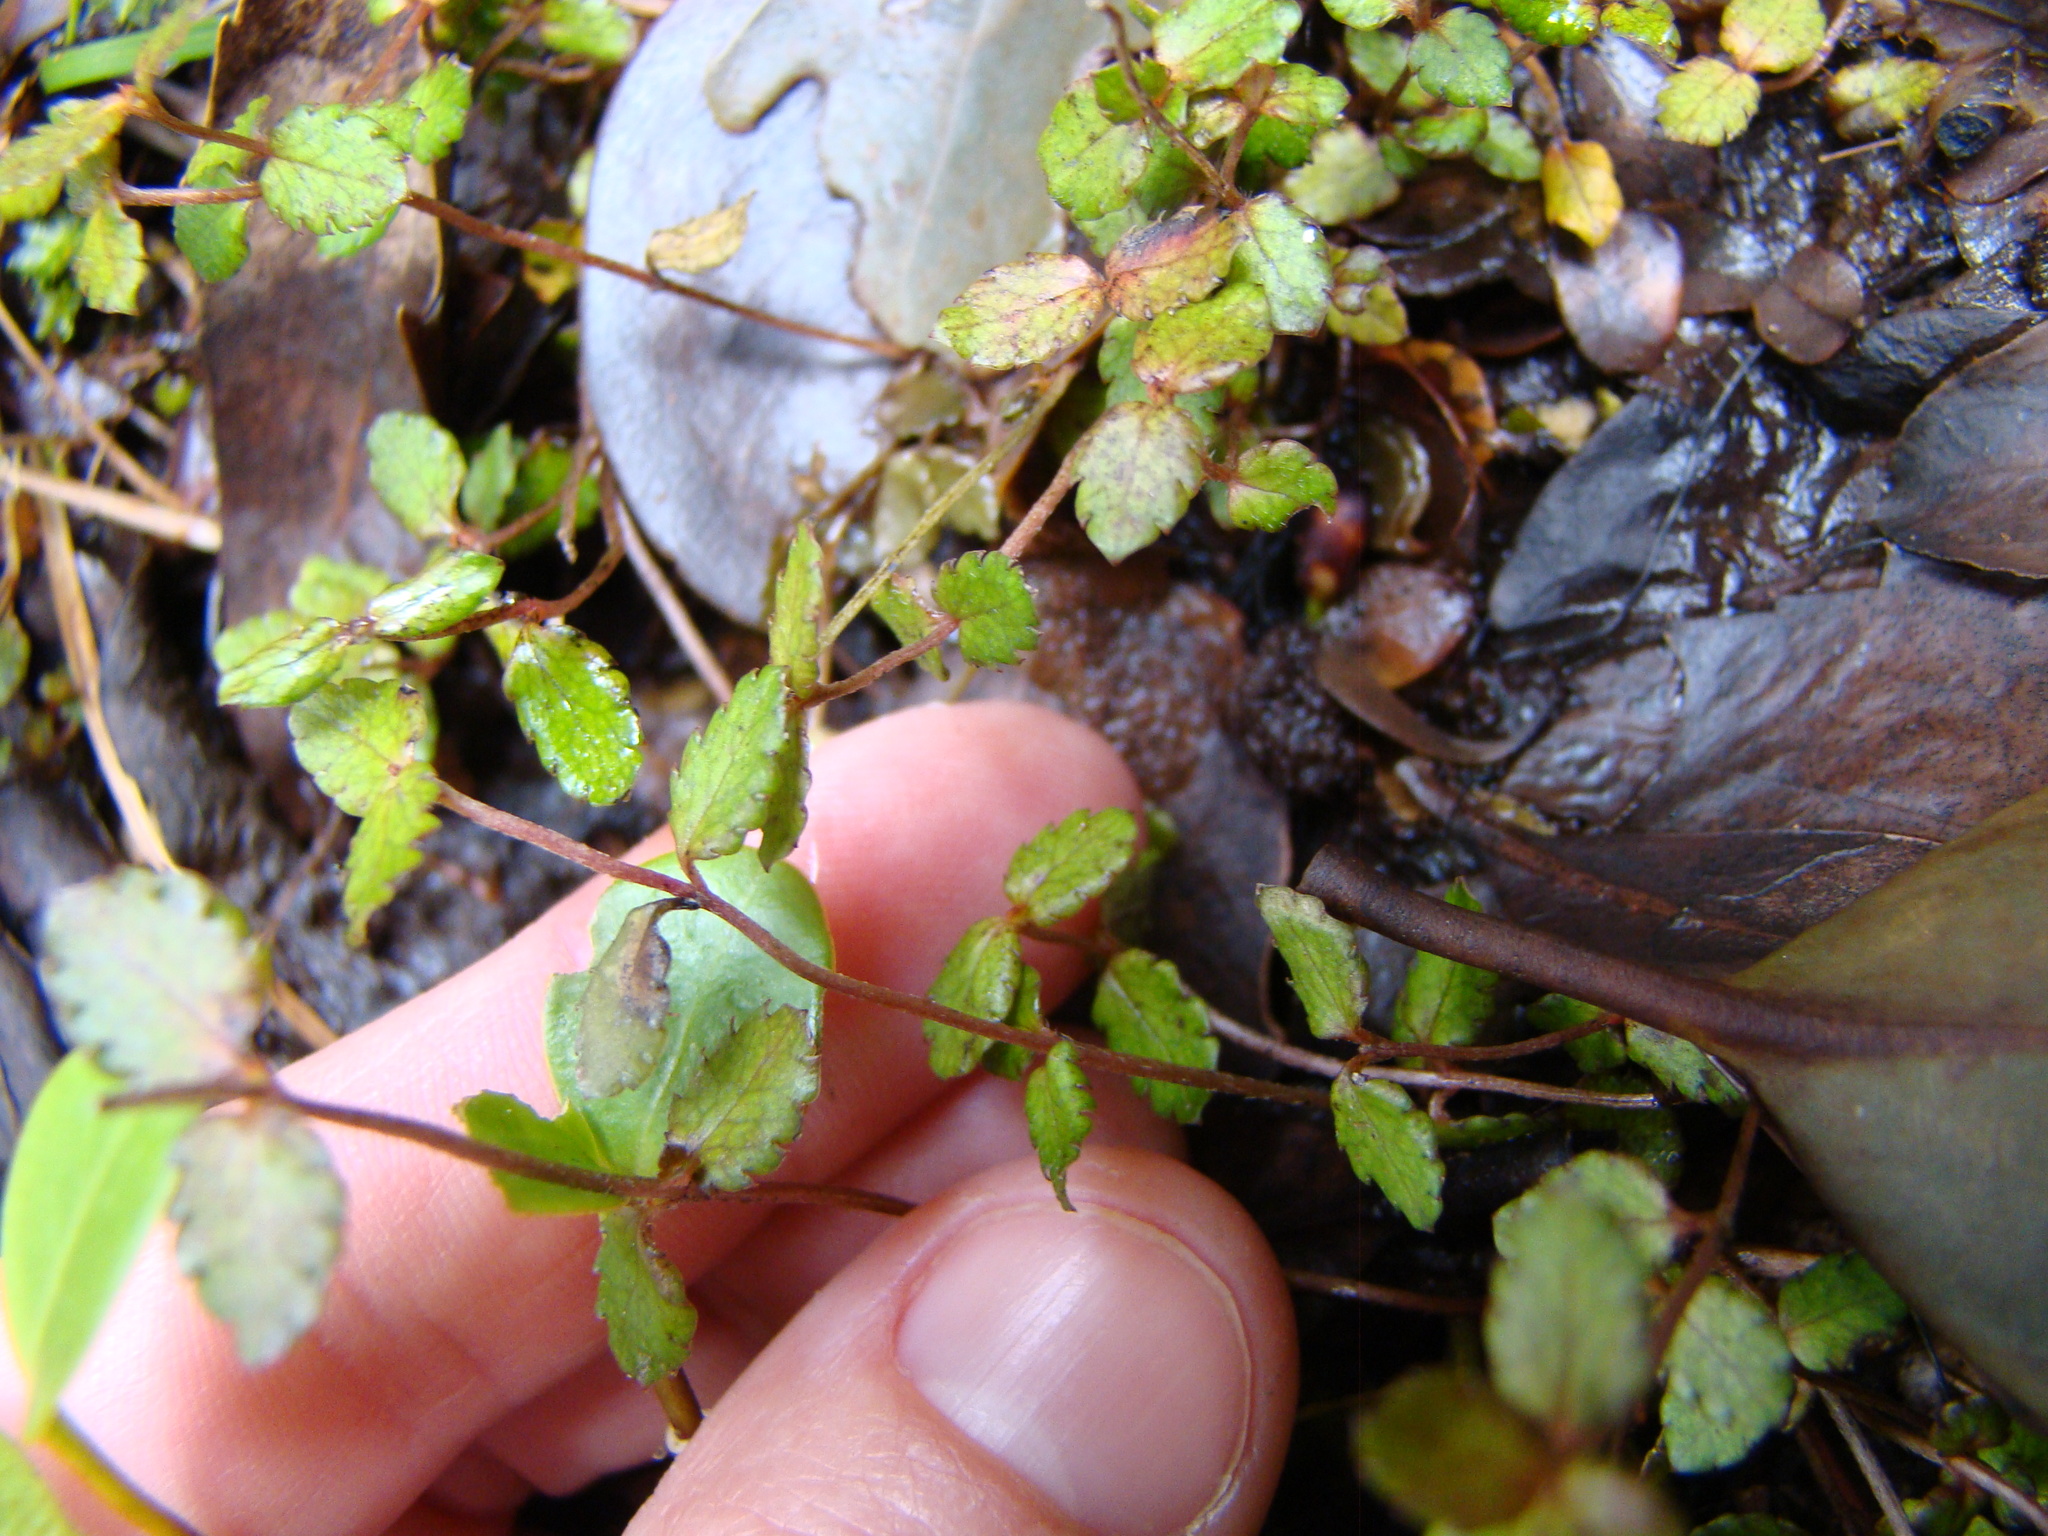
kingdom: Plantae
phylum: Tracheophyta
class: Magnoliopsida
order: Saxifragales
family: Haloragaceae
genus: Gonocarpus
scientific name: Gonocarpus aggregatus
